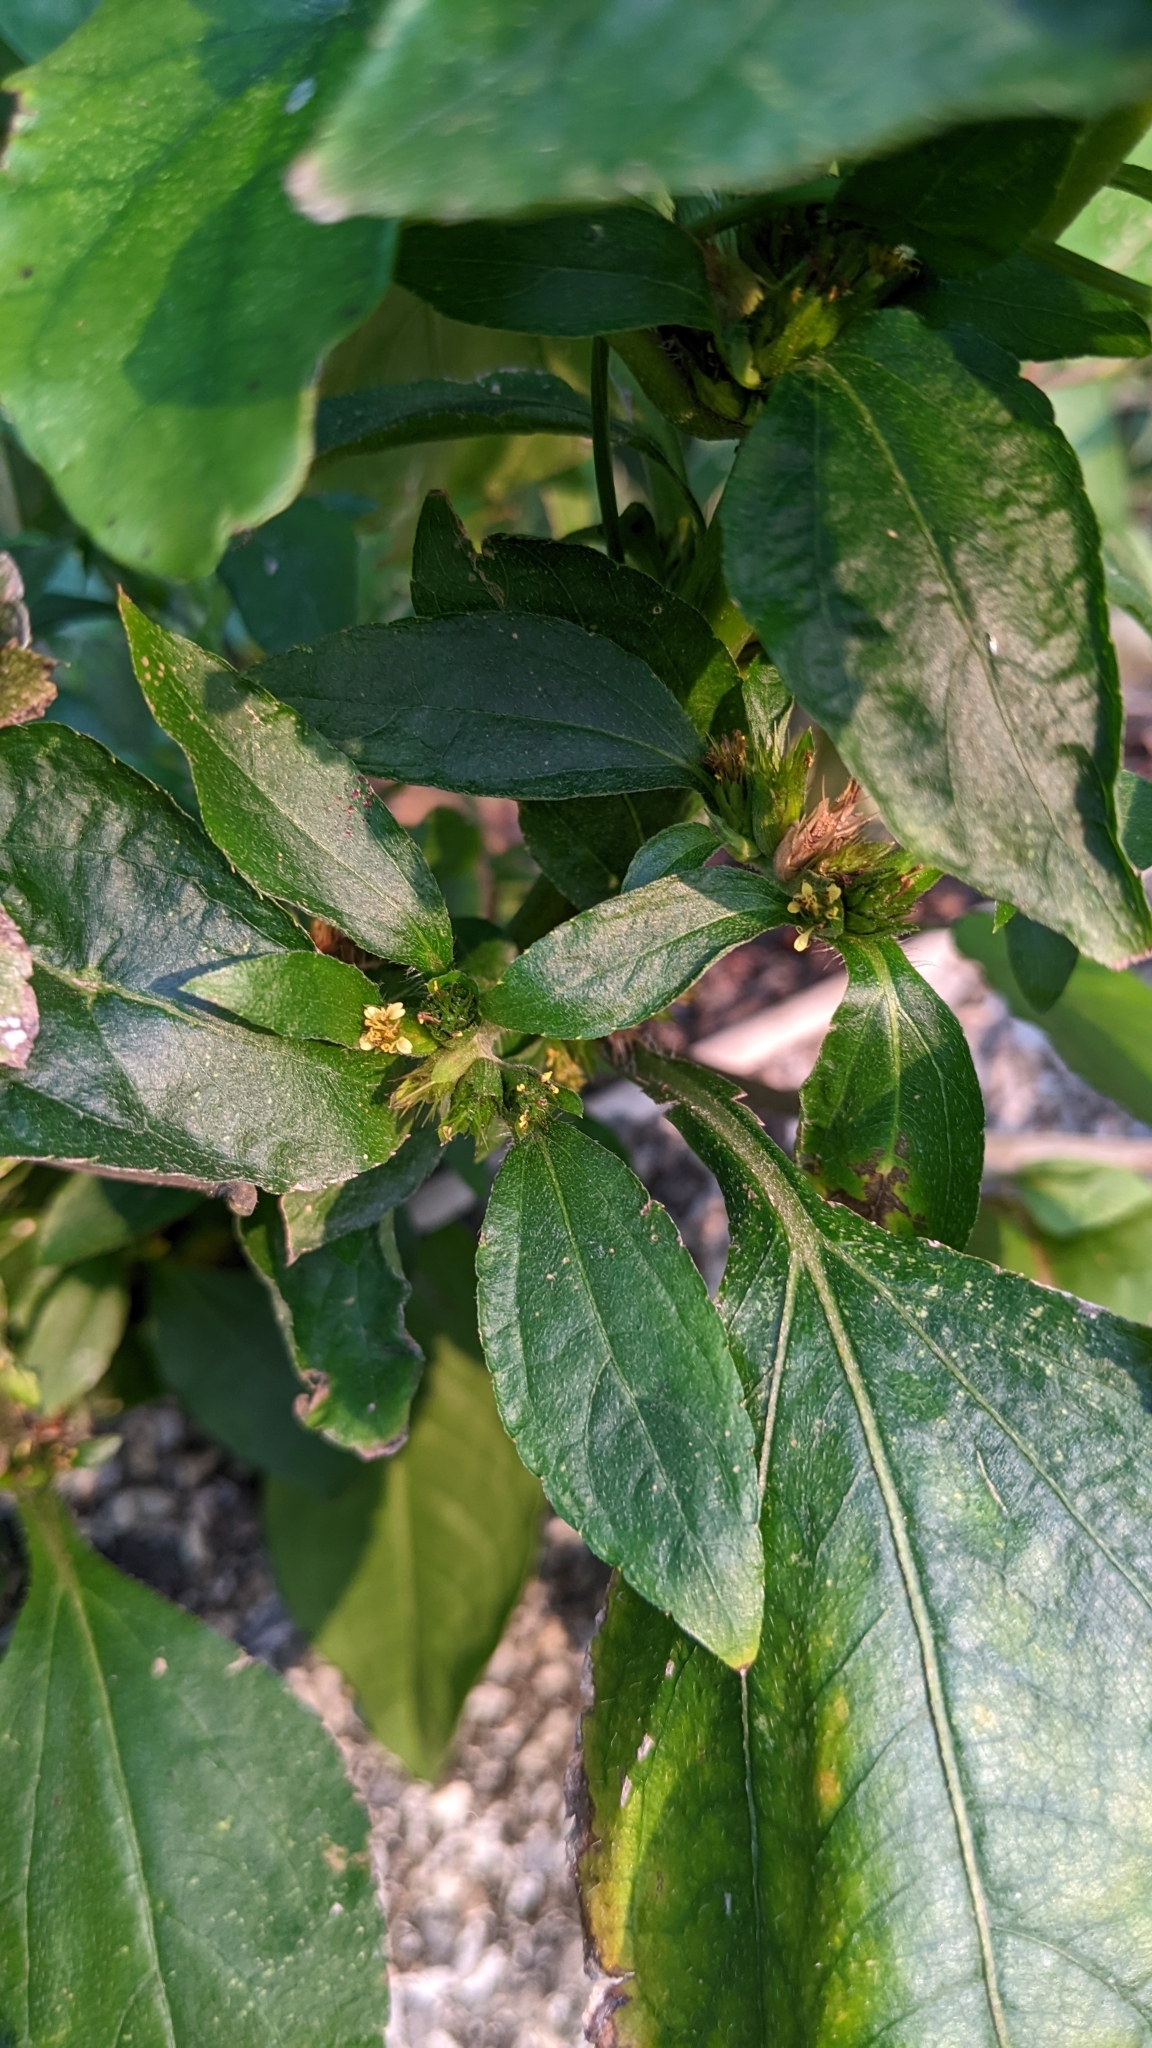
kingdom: Plantae
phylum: Tracheophyta
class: Magnoliopsida
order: Asterales
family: Asteraceae
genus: Synedrella
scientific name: Synedrella nodiflora
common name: Nodeweed
